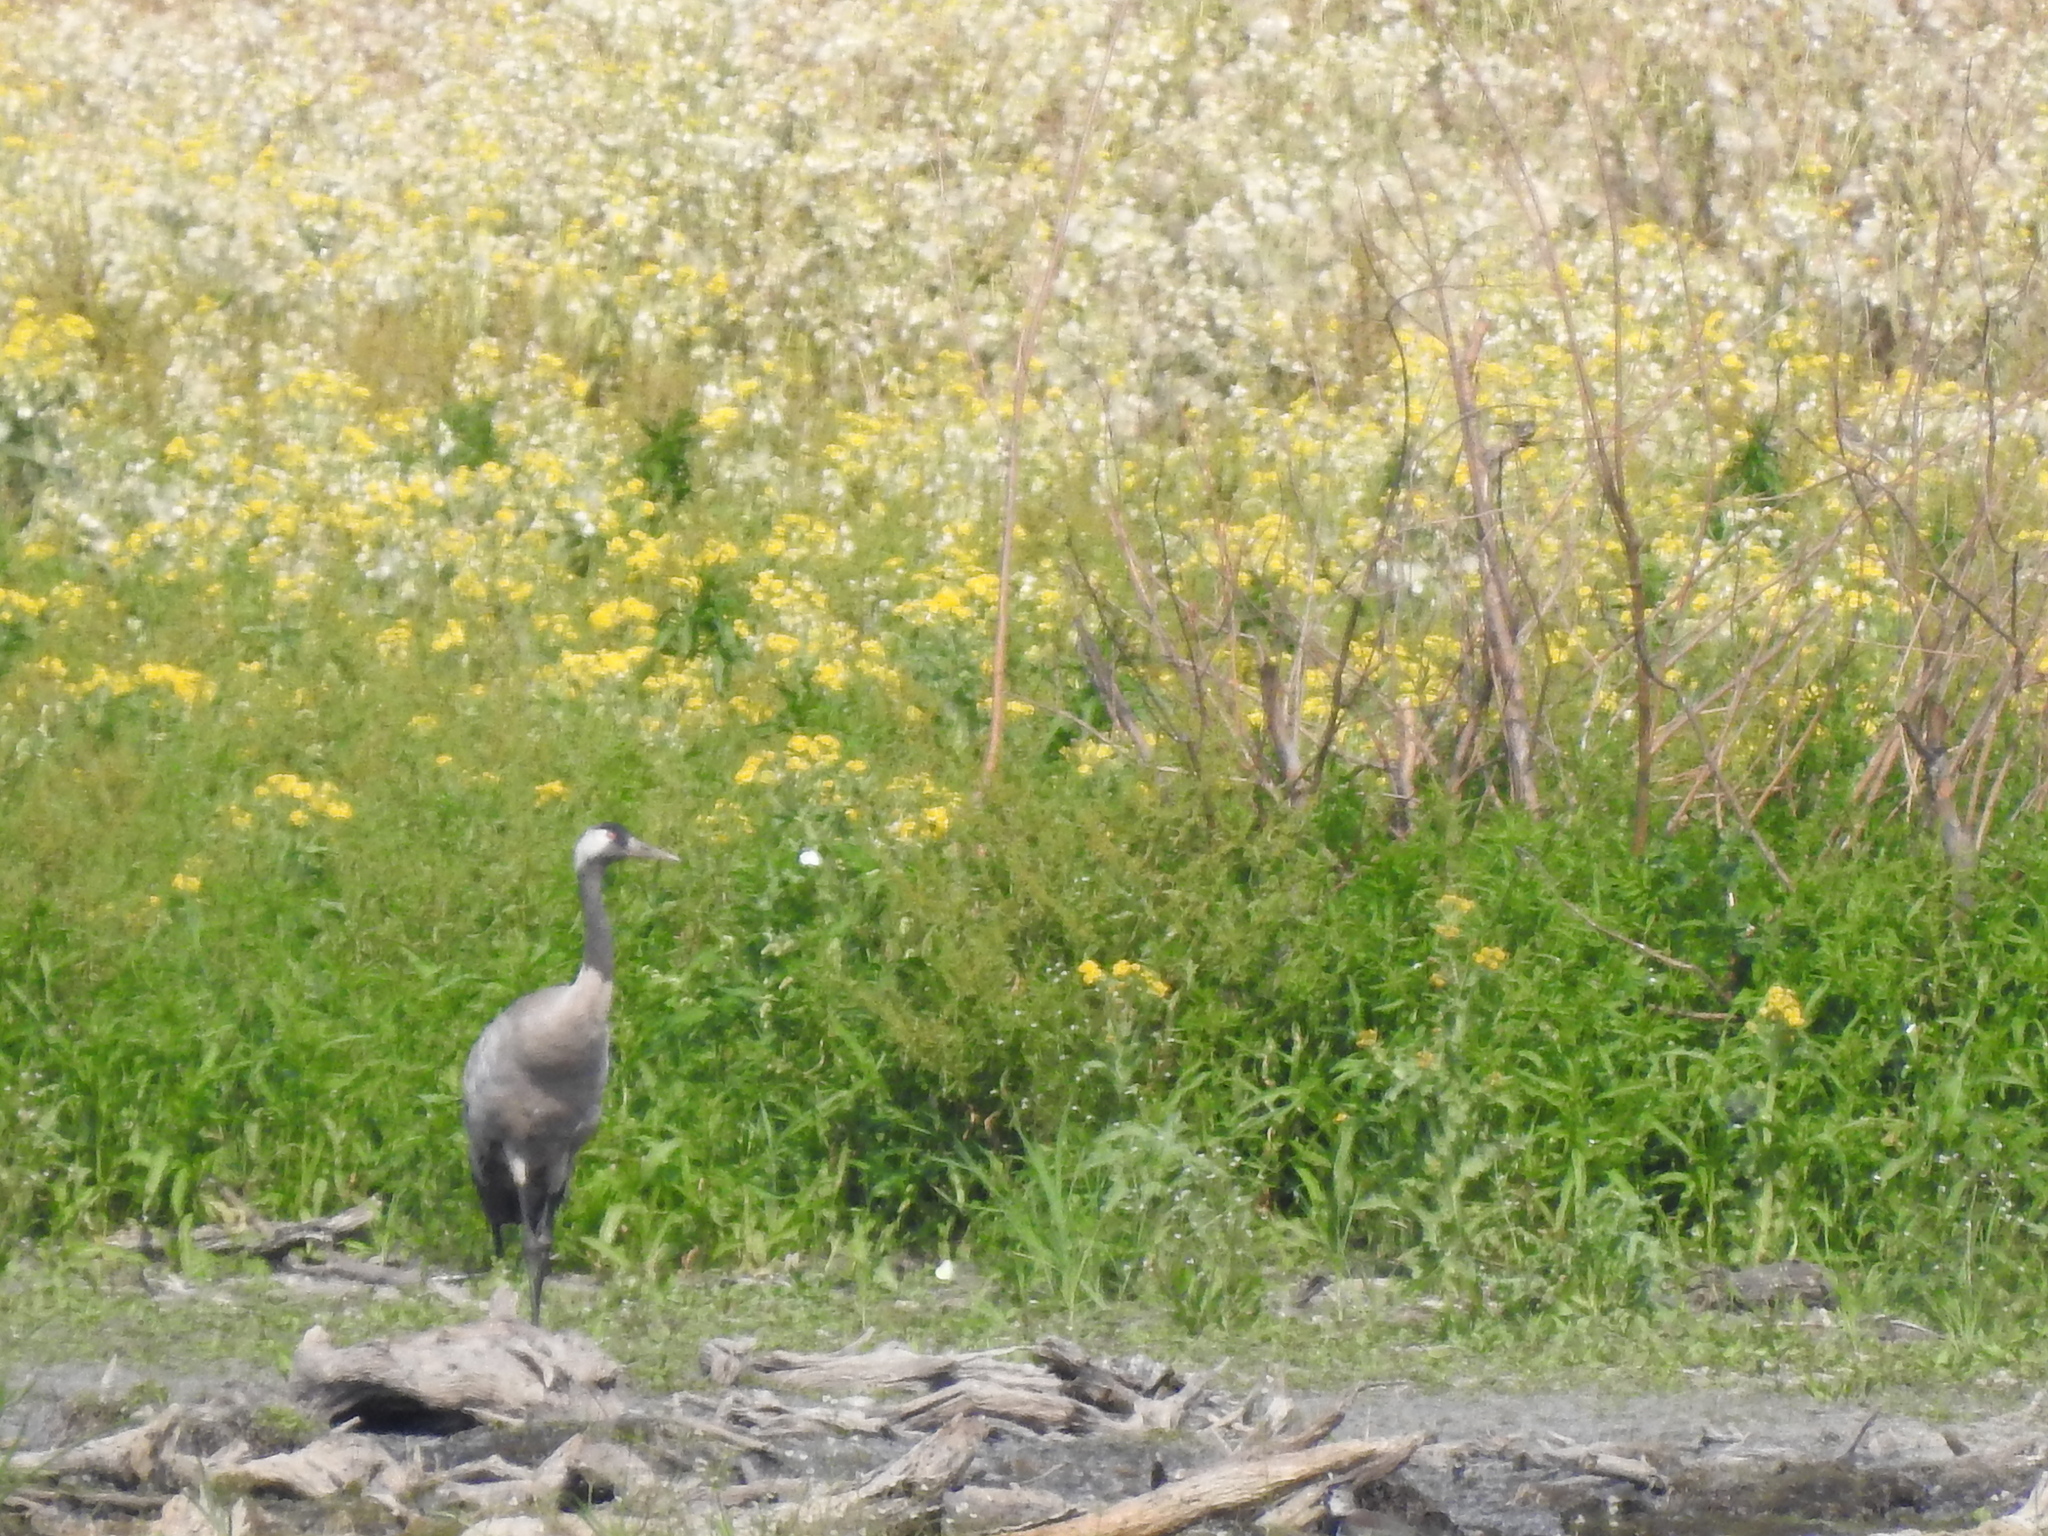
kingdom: Animalia
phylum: Chordata
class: Aves
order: Gruiformes
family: Gruidae
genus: Grus
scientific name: Grus grus
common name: Common crane
